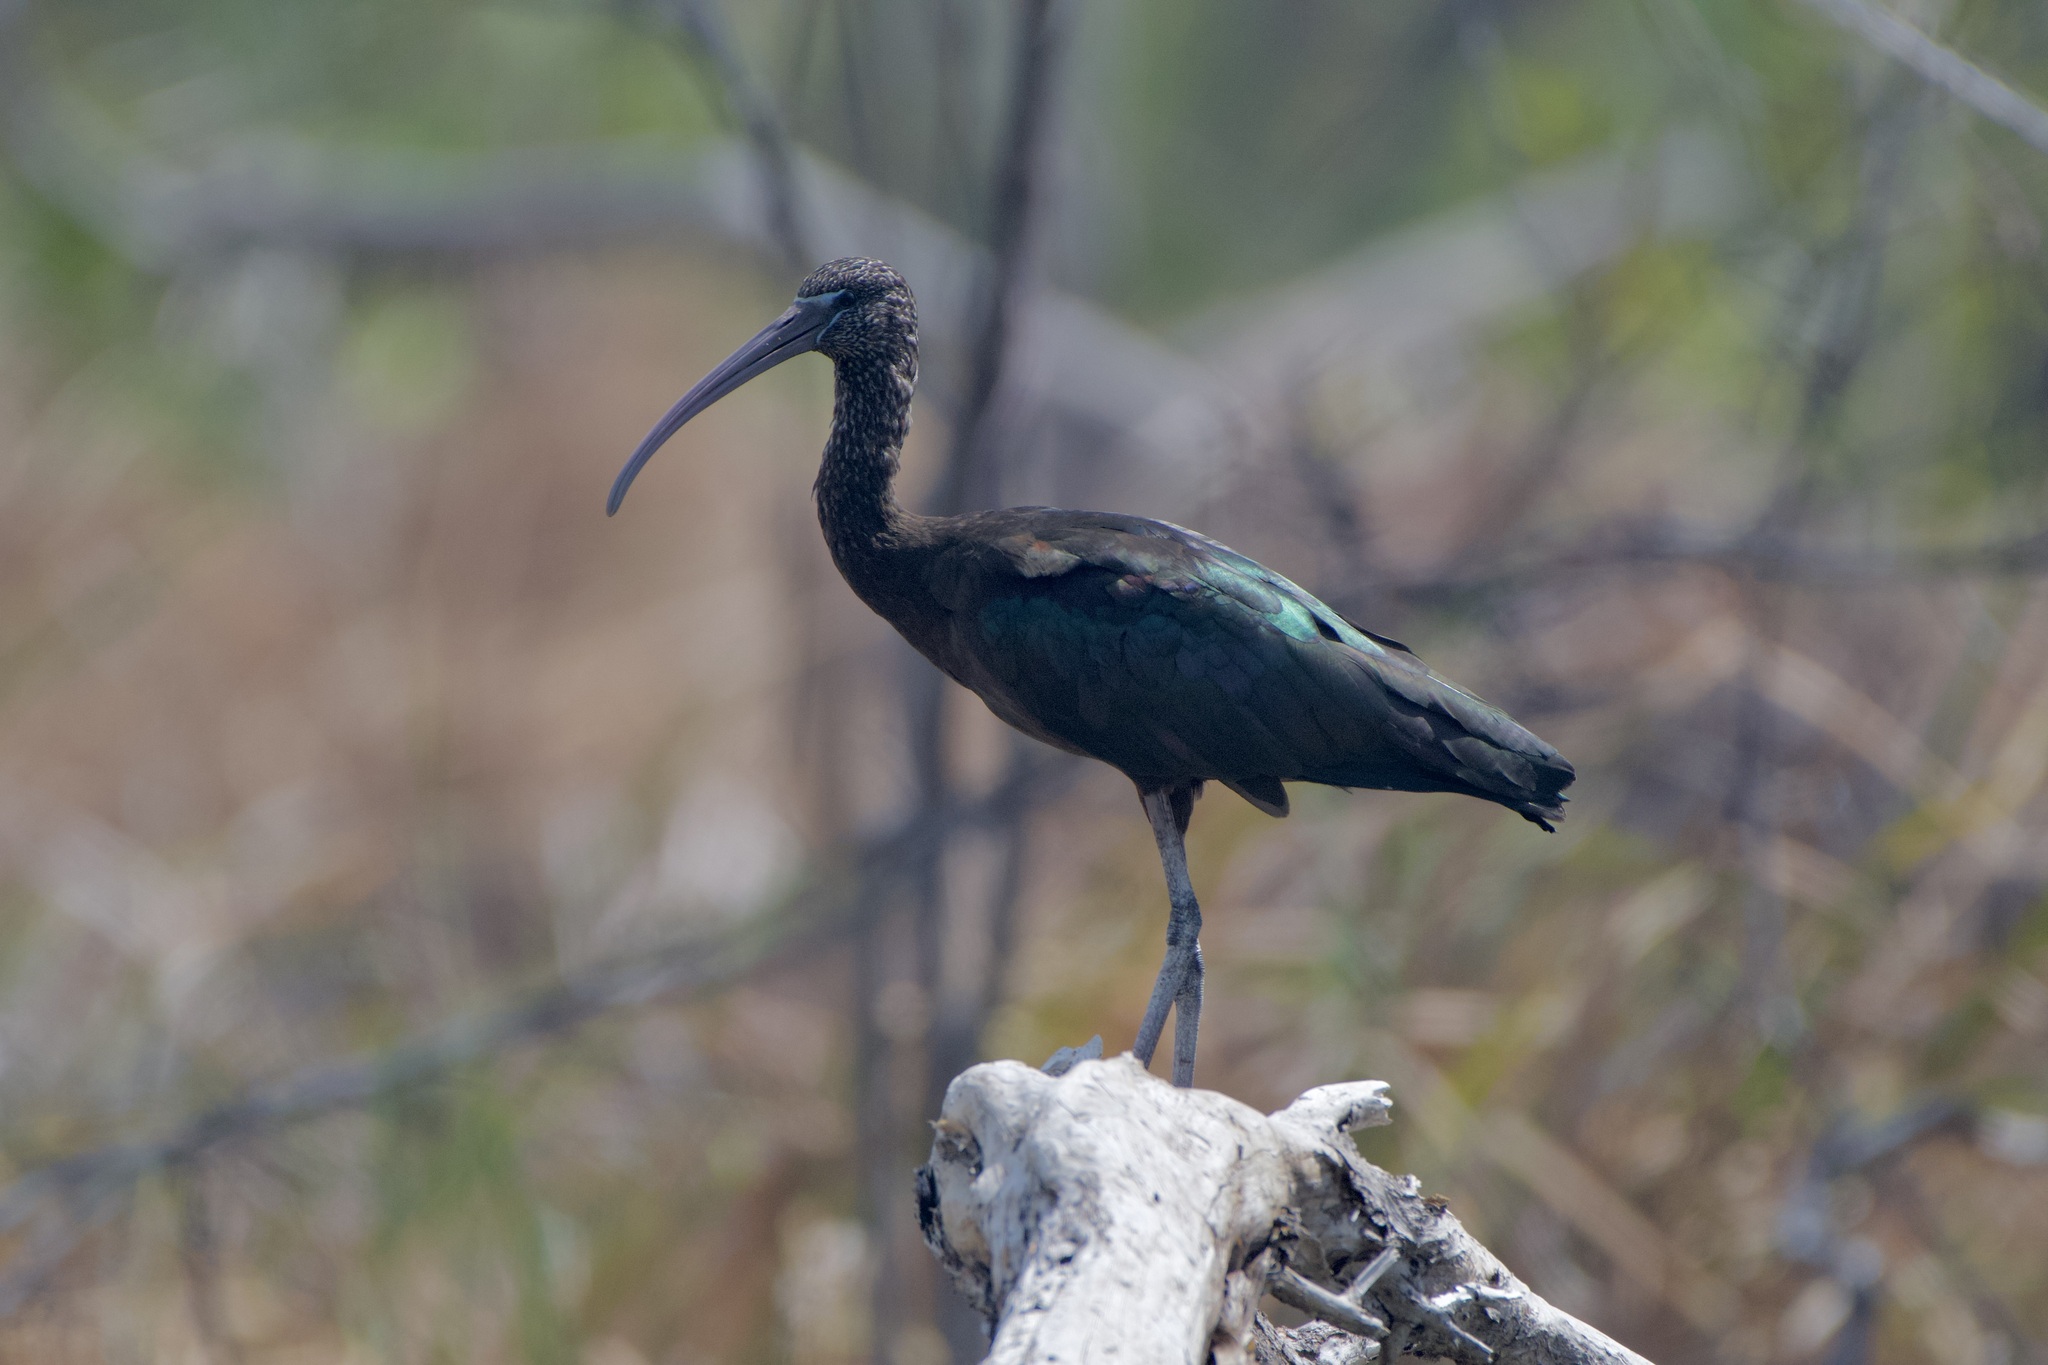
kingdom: Animalia
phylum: Chordata
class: Aves
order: Pelecaniformes
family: Threskiornithidae
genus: Plegadis
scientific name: Plegadis falcinellus
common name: Glossy ibis
